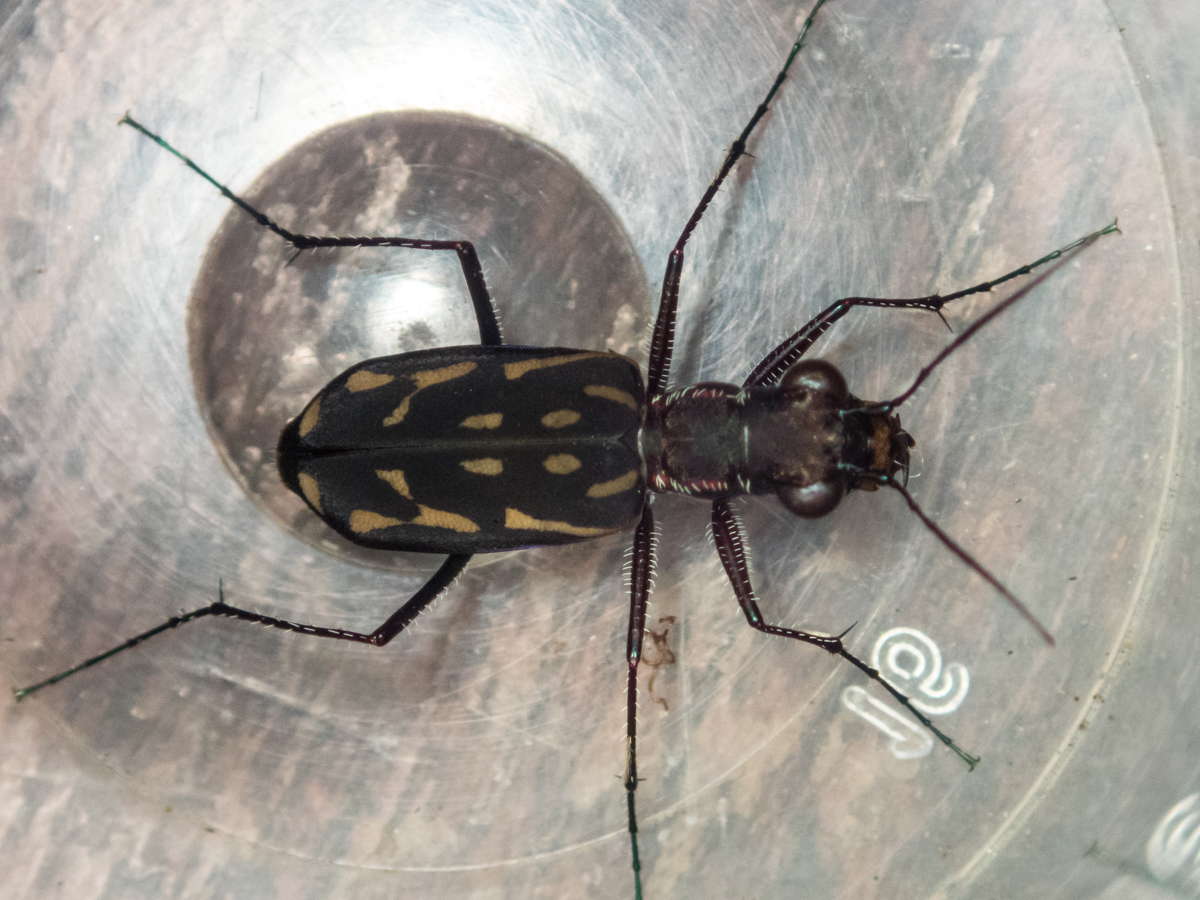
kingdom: Animalia
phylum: Arthropoda
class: Insecta
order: Coleoptera
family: Carabidae
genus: Lophyra
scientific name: Lophyra striolata
